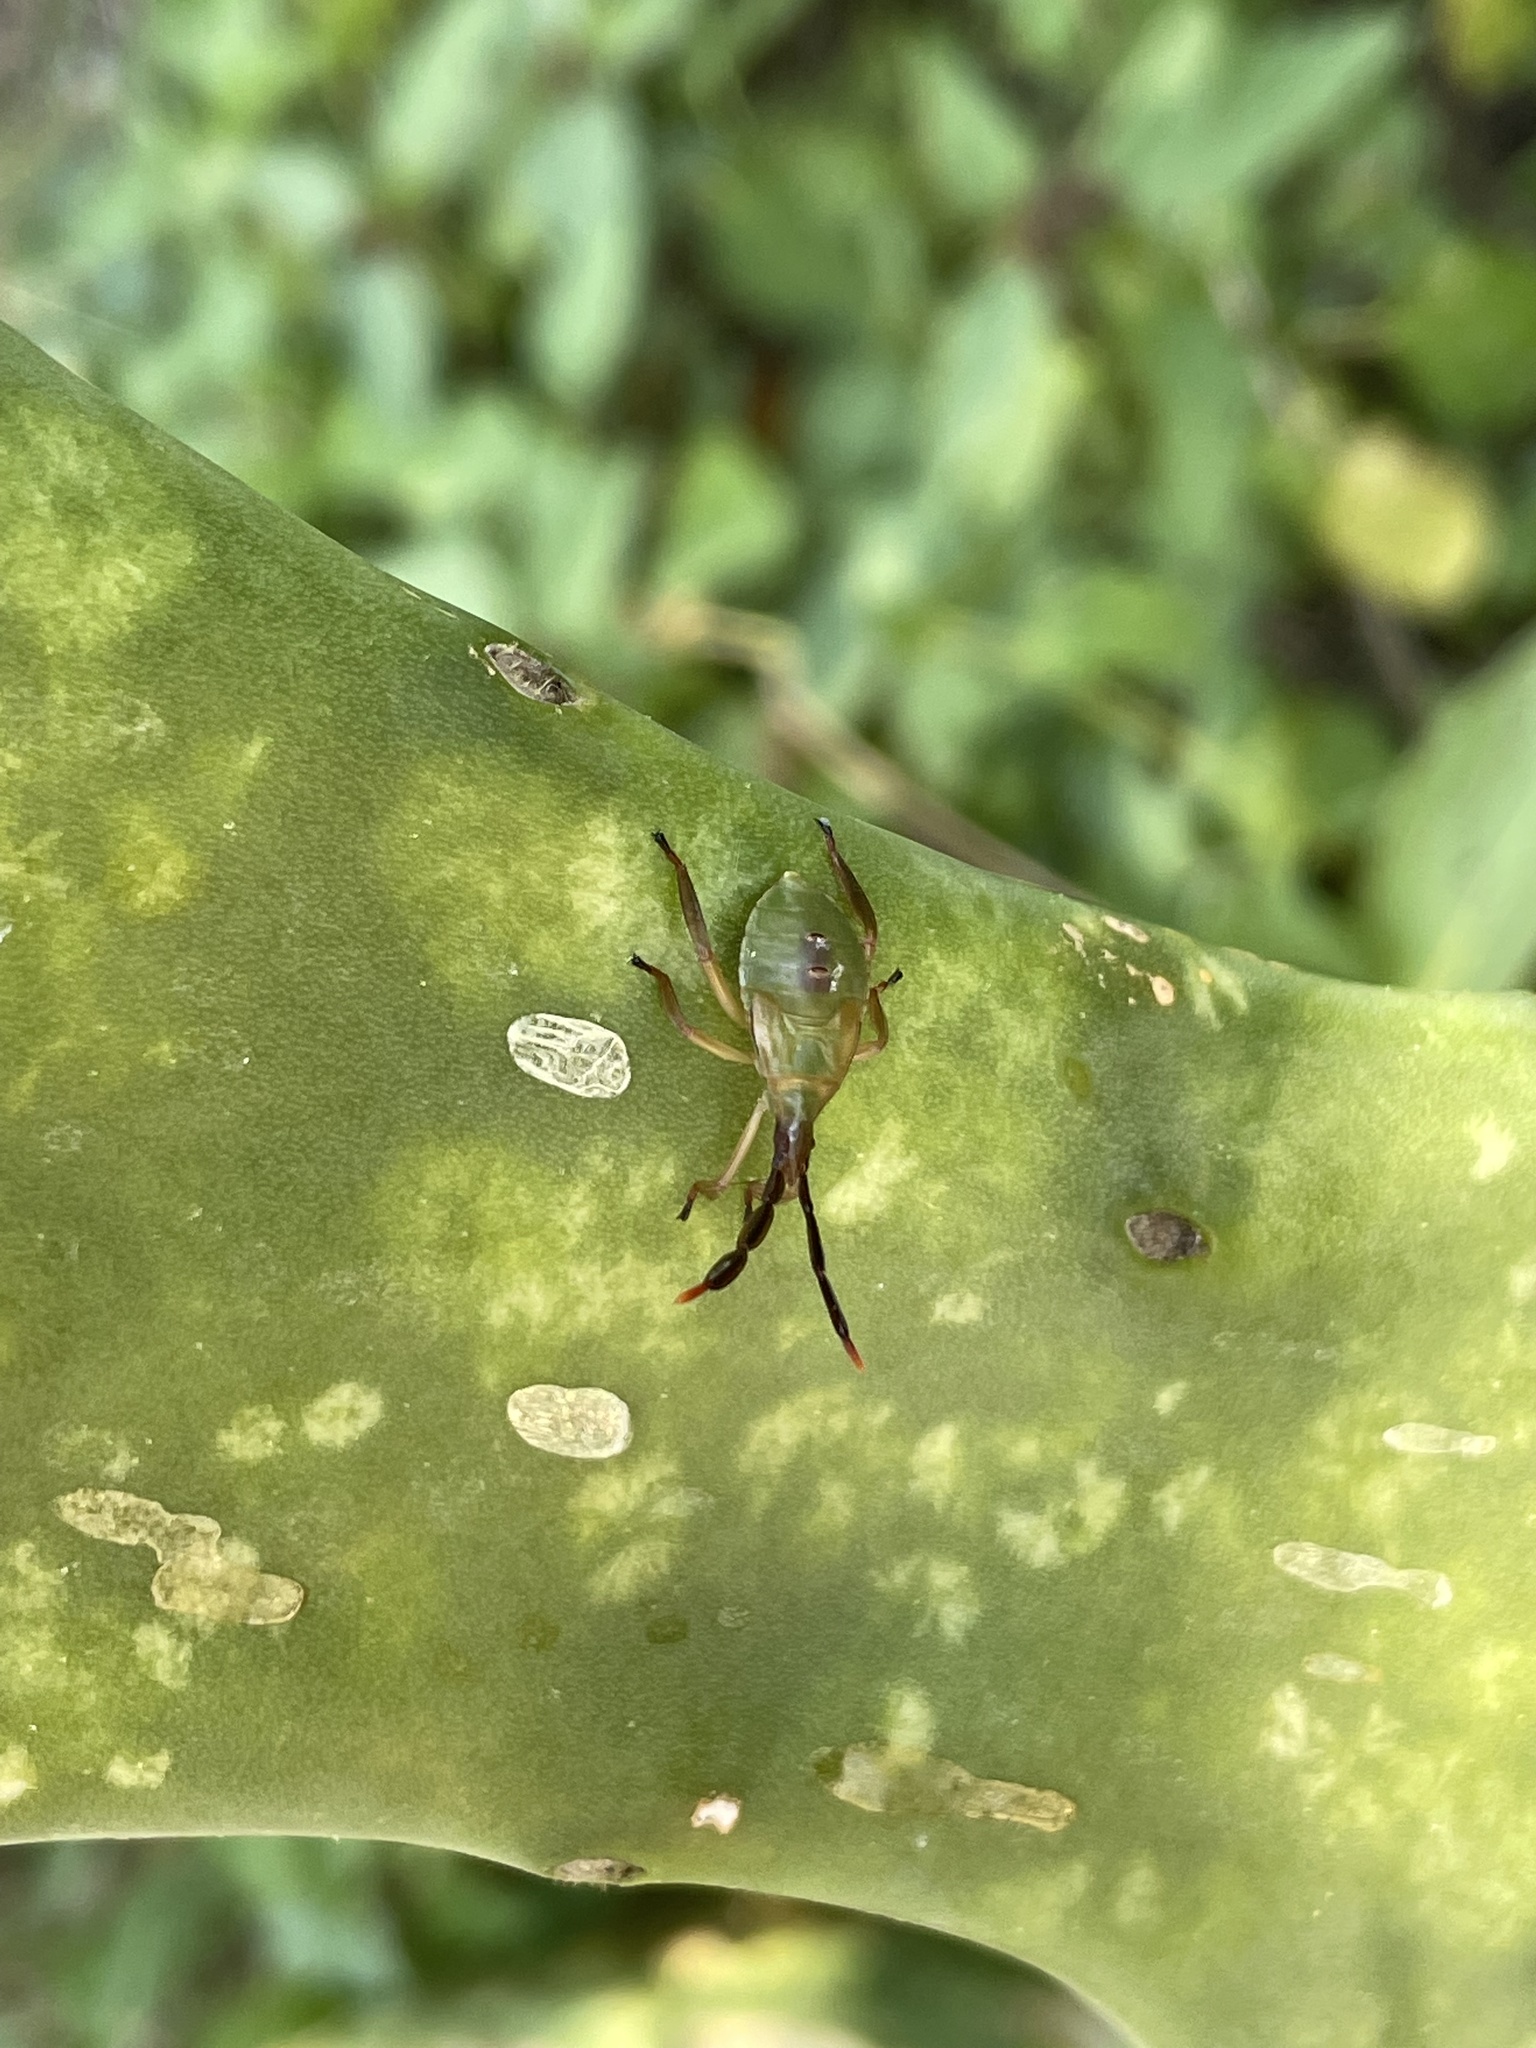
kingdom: Animalia
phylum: Arthropoda
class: Insecta
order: Hemiptera
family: Coreidae
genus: Chelinidea
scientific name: Chelinidea vittiger
